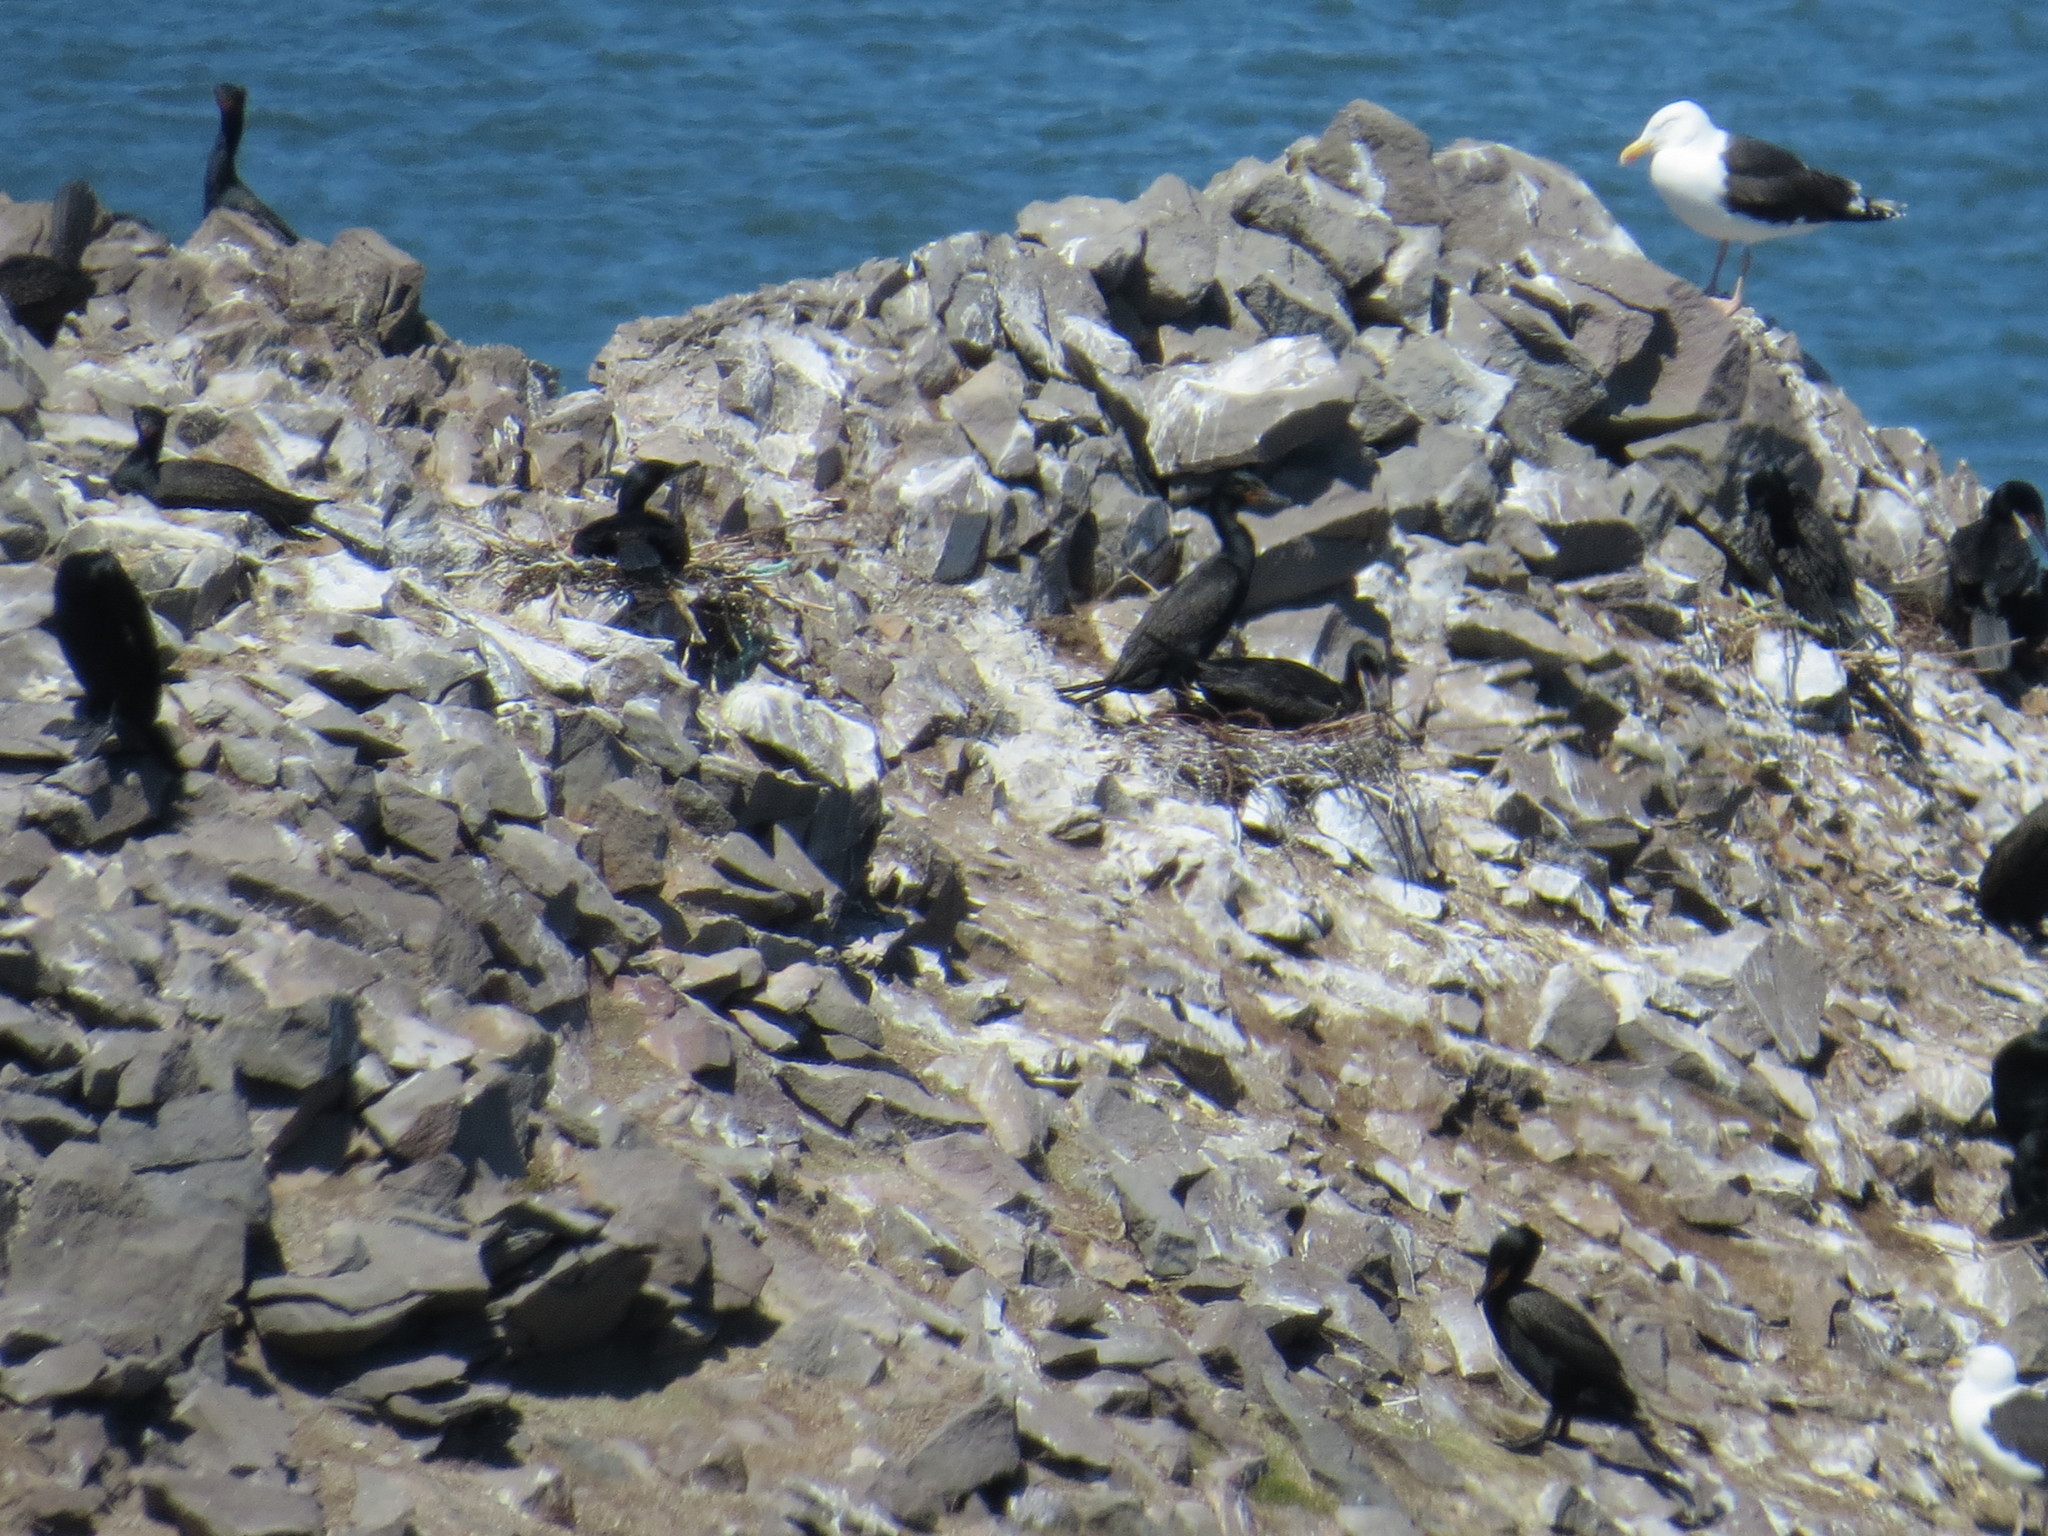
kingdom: Animalia
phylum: Chordata
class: Aves
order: Suliformes
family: Phalacrocoracidae
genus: Phalacrocorax
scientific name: Phalacrocorax auritus
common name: Double-crested cormorant
